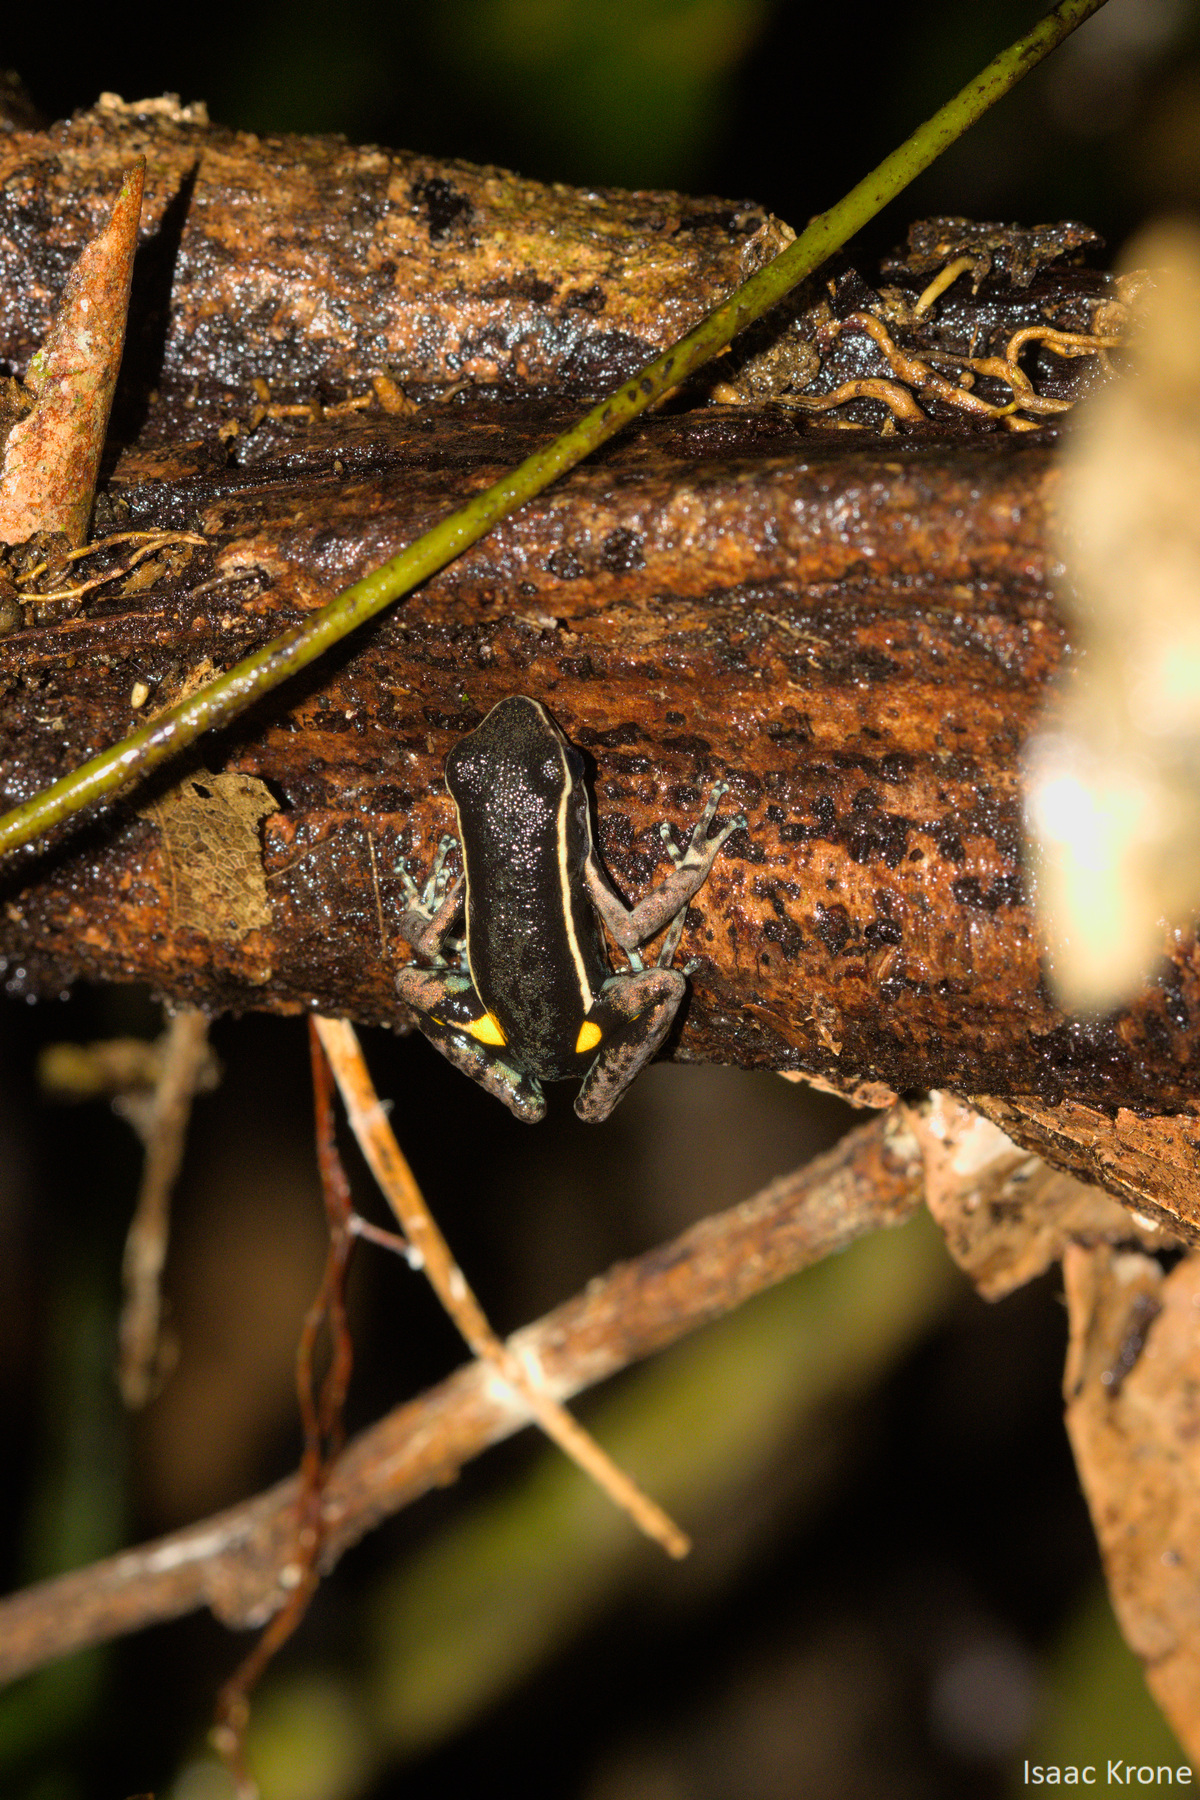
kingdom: Animalia
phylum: Chordata
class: Amphibia
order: Anura
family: Dendrobatidae
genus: Ameerega
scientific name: Ameerega hahneli
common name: Yurimaguas pioson frog
